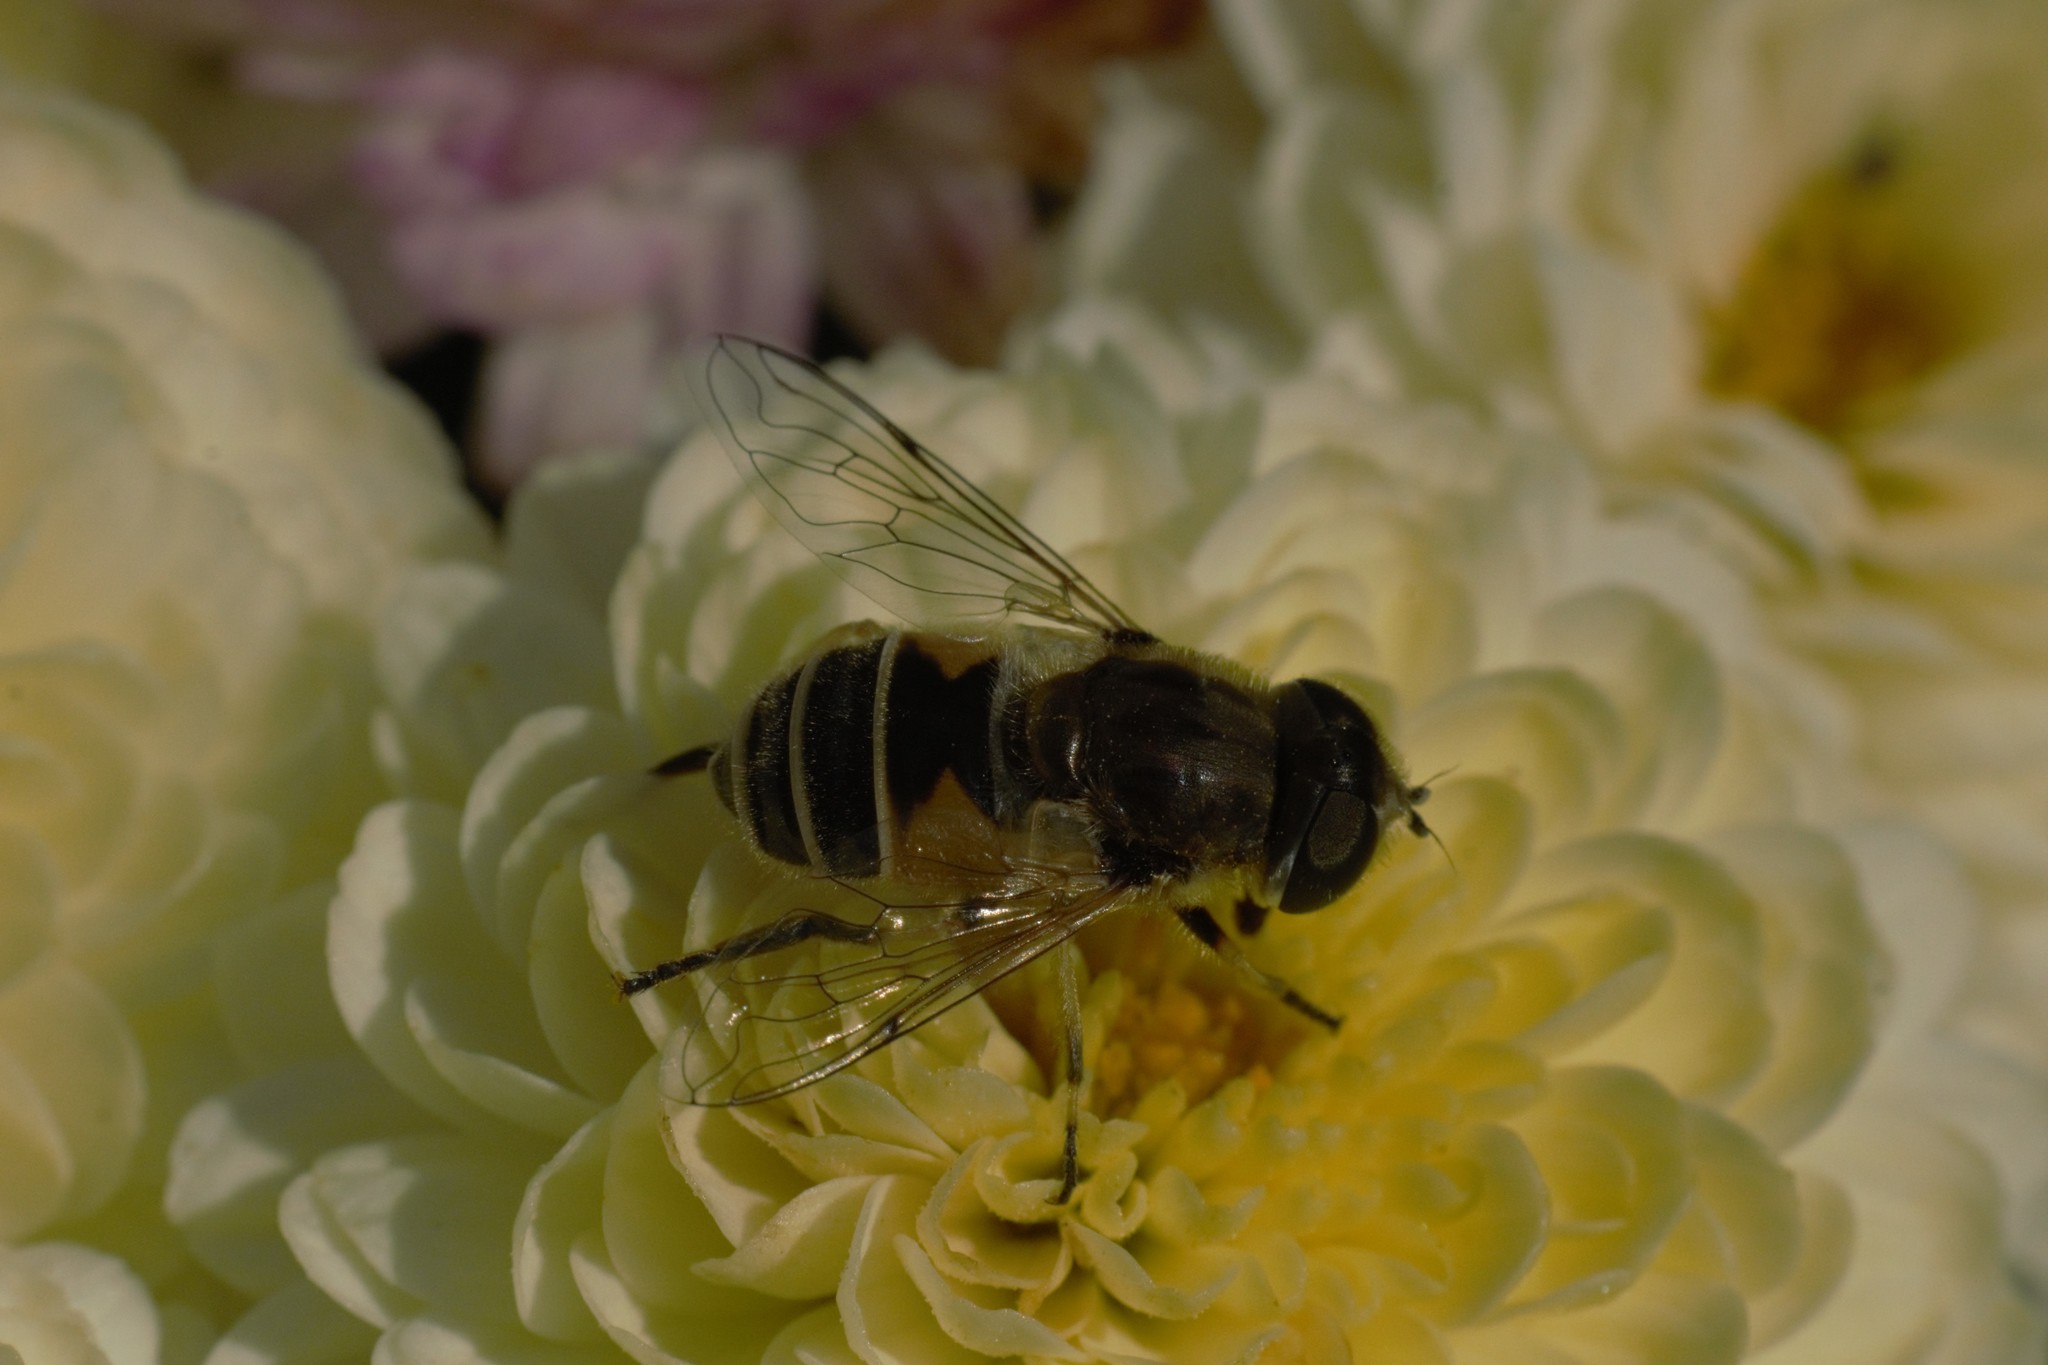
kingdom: Animalia
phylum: Arthropoda
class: Insecta
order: Diptera
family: Syrphidae
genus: Eristalis
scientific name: Eristalis arbustorum
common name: Hover fly
